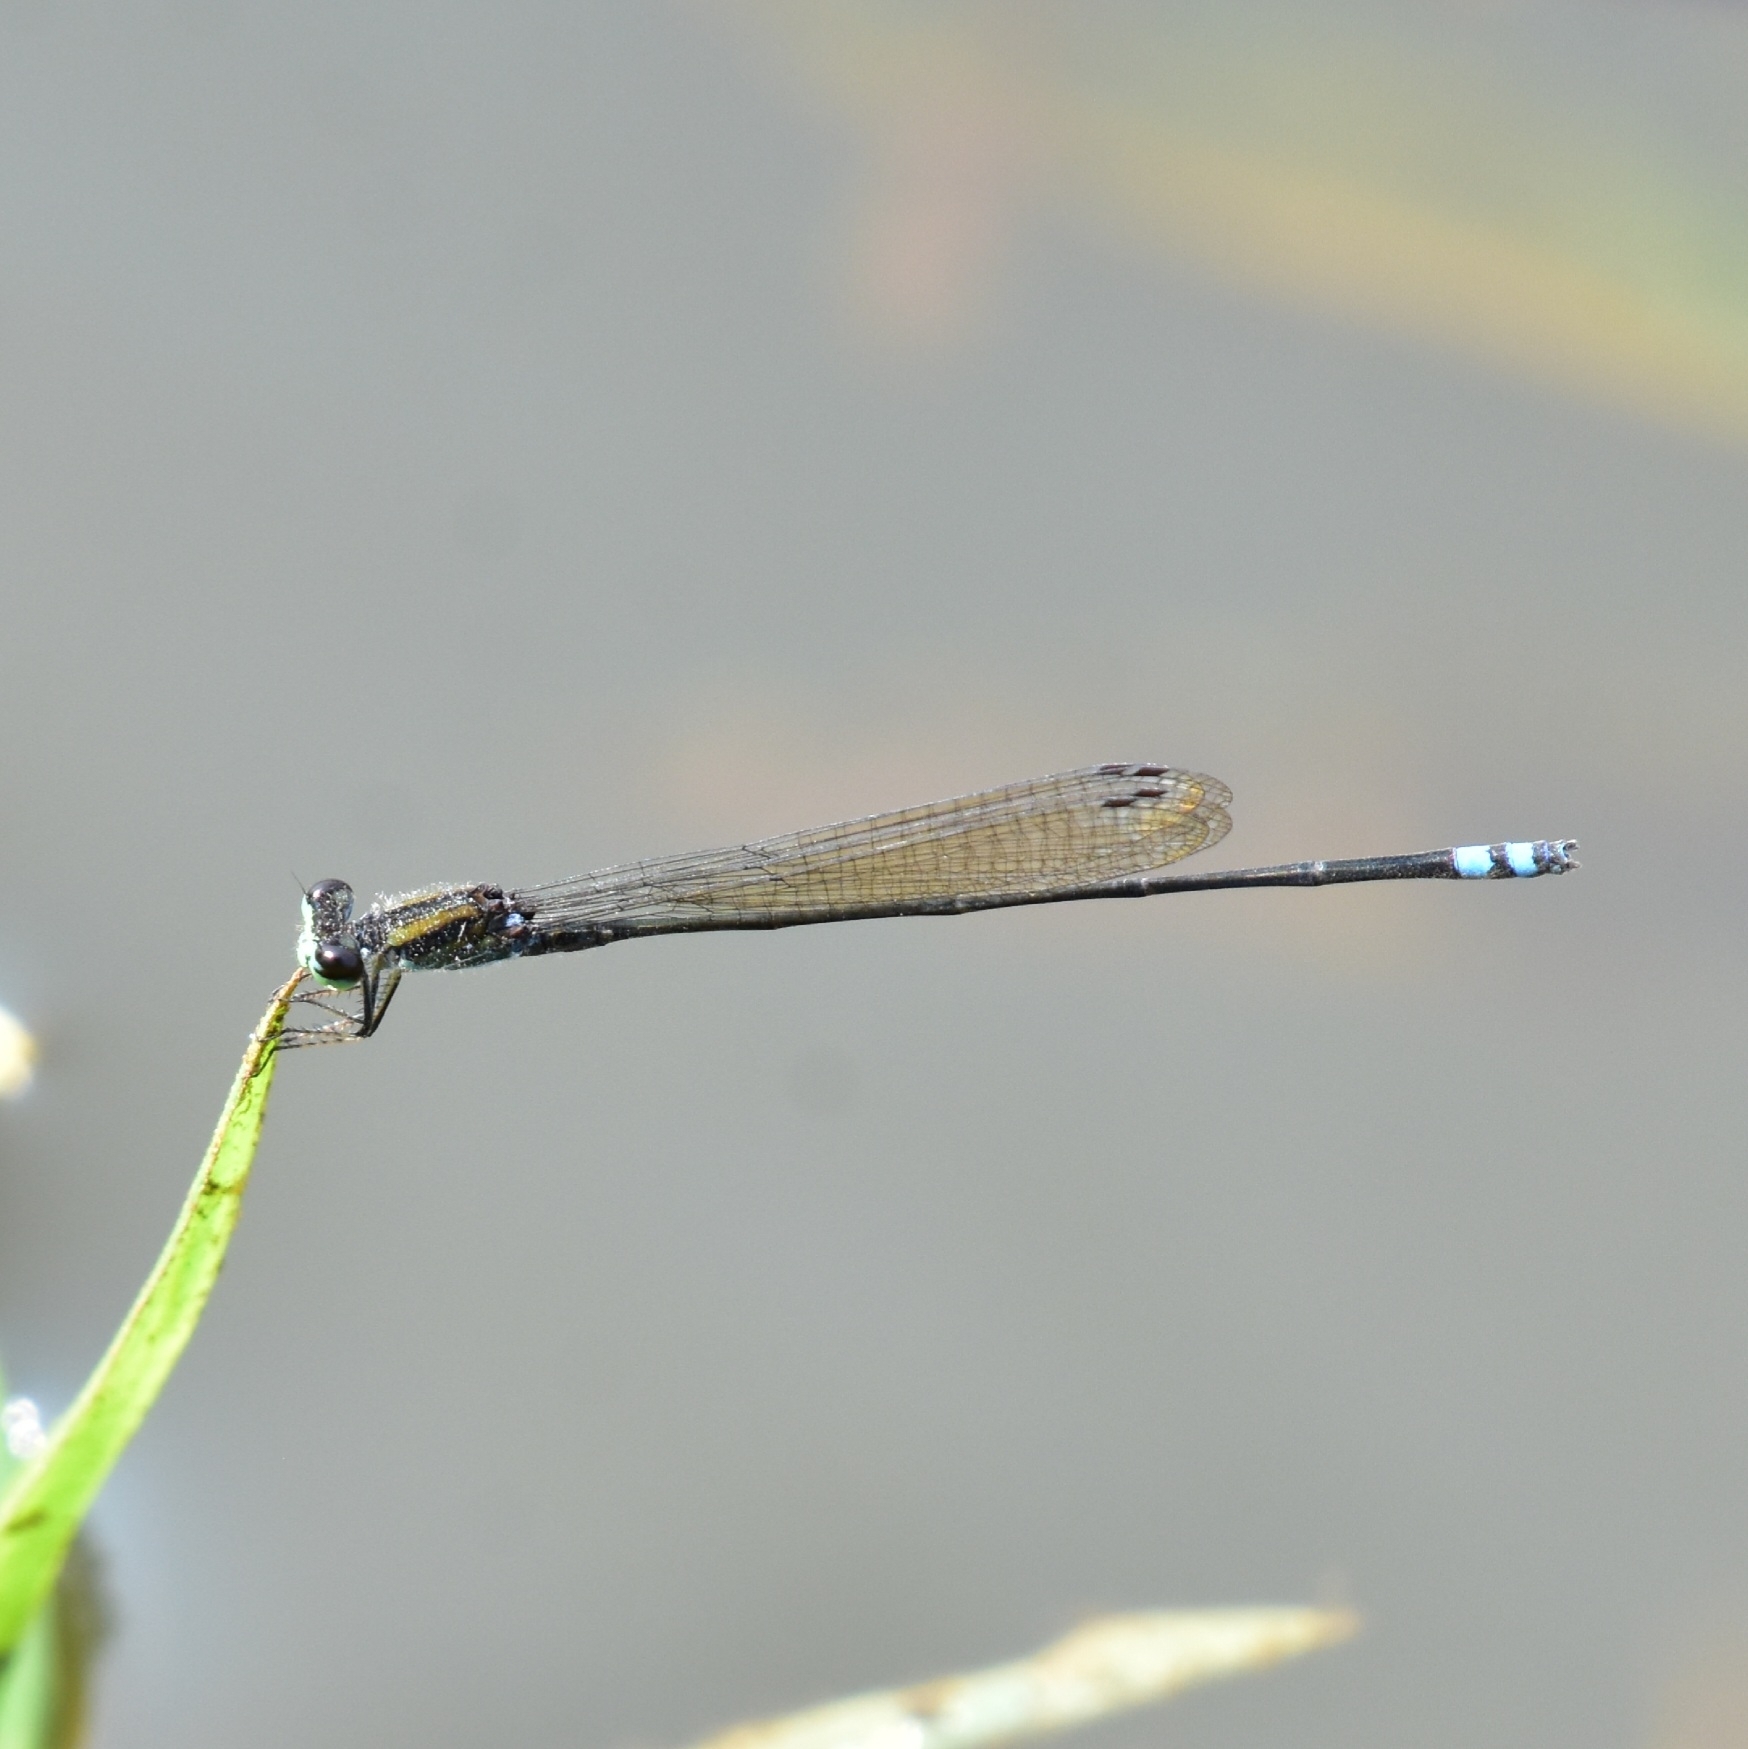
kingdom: Animalia
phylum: Arthropoda
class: Insecta
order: Odonata
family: Coenagrionidae
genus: Pseudagrion
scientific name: Pseudagrion indicum
